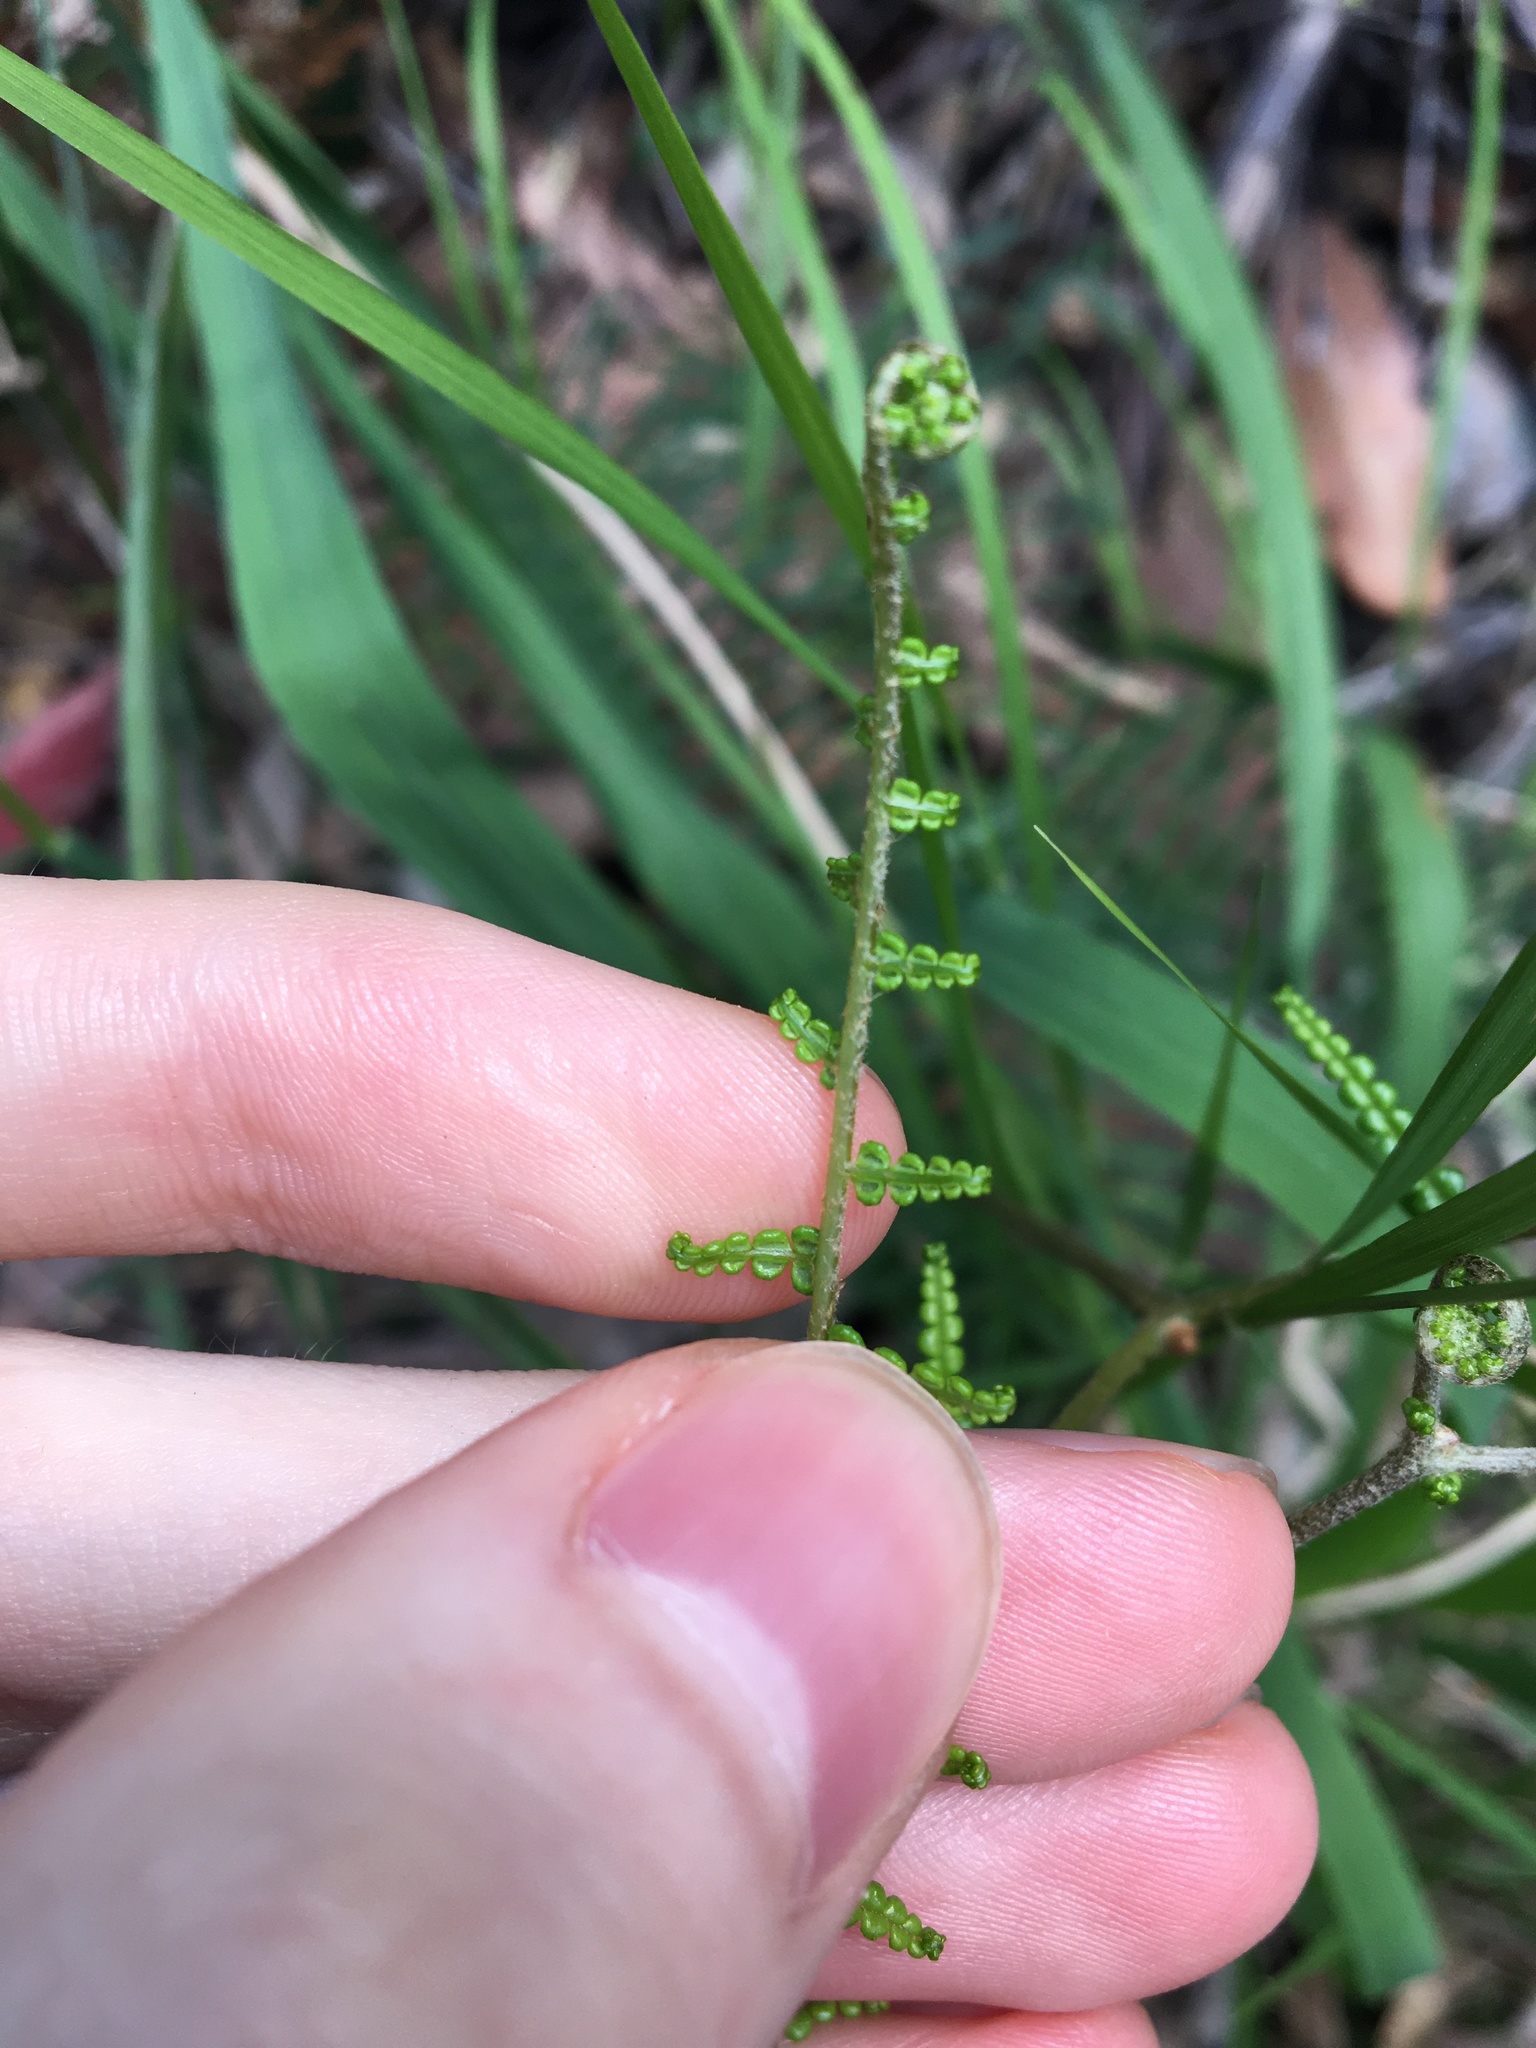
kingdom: Plantae
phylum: Tracheophyta
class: Polypodiopsida
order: Gleicheniales
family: Gleicheniaceae
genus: Gleichenia
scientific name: Gleichenia dicarpa
